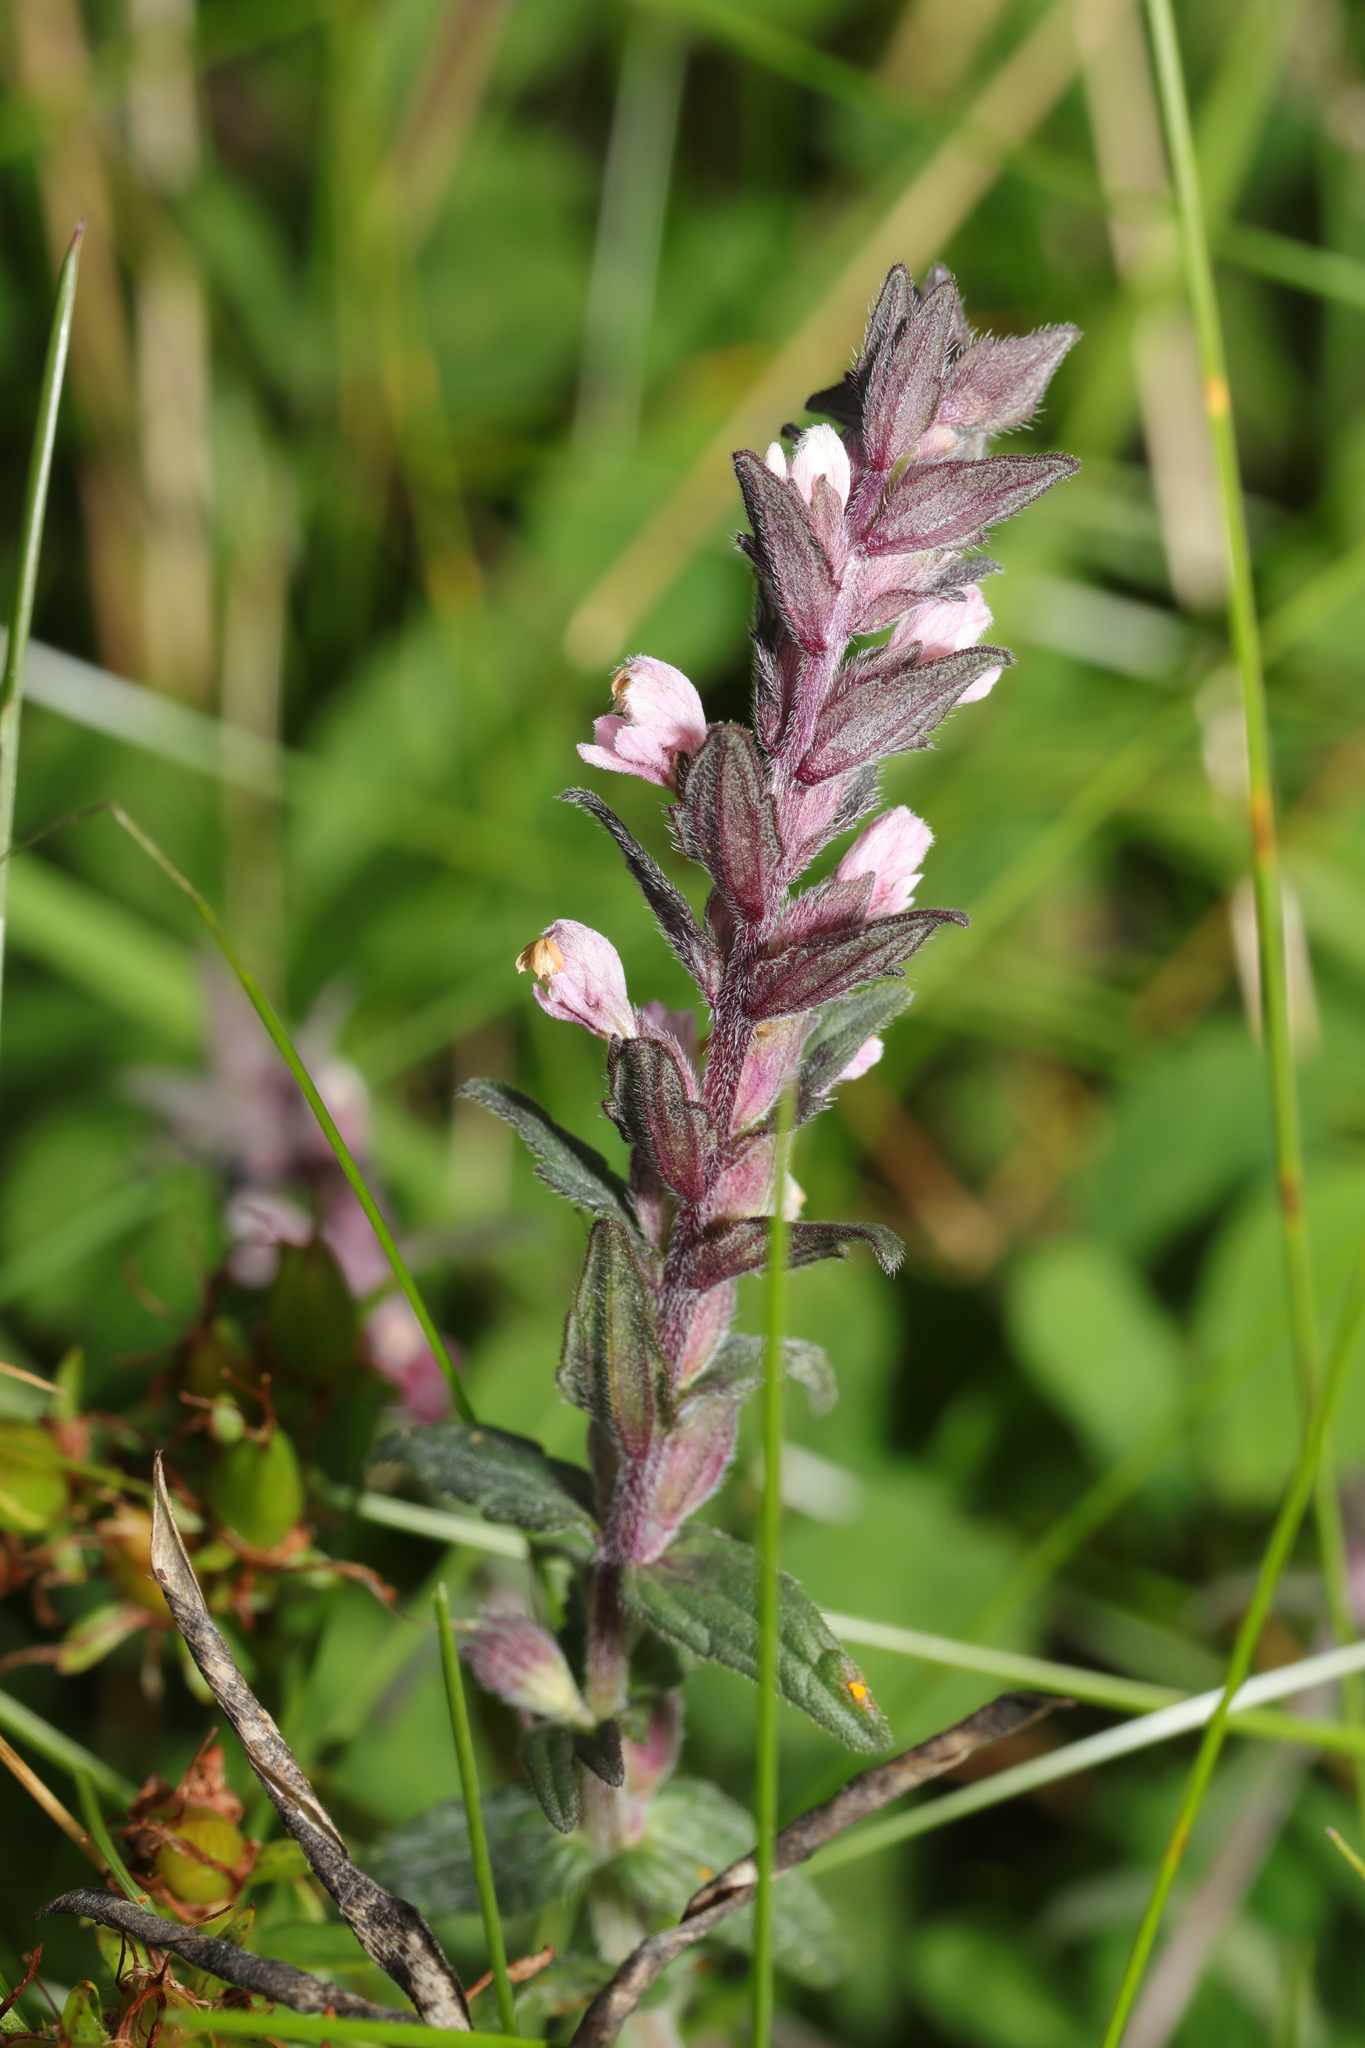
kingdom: Plantae
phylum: Tracheophyta
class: Magnoliopsida
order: Lamiales
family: Orobanchaceae
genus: Odontites
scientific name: Odontites vernus
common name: Red bartsia
